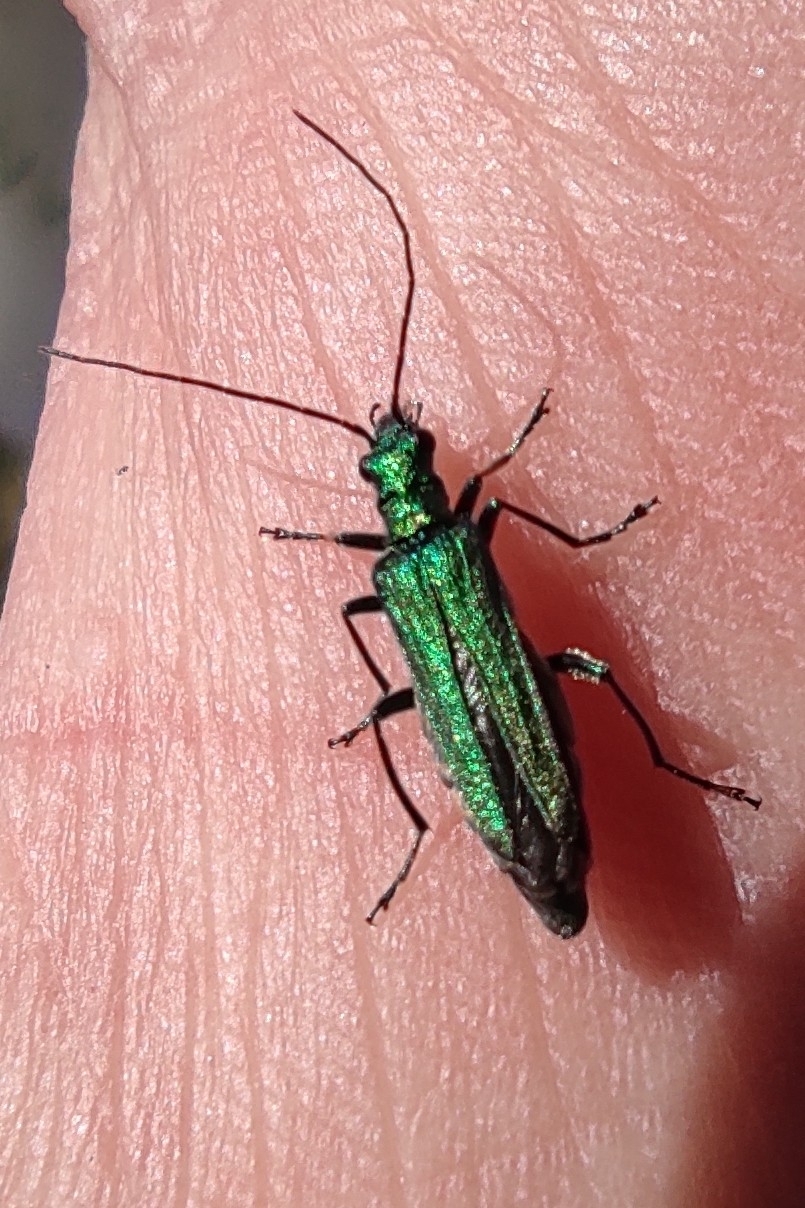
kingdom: Animalia
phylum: Arthropoda
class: Insecta
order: Coleoptera
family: Oedemeridae
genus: Oedemera
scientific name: Oedemera nobilis
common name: Swollen-thighed beetle
